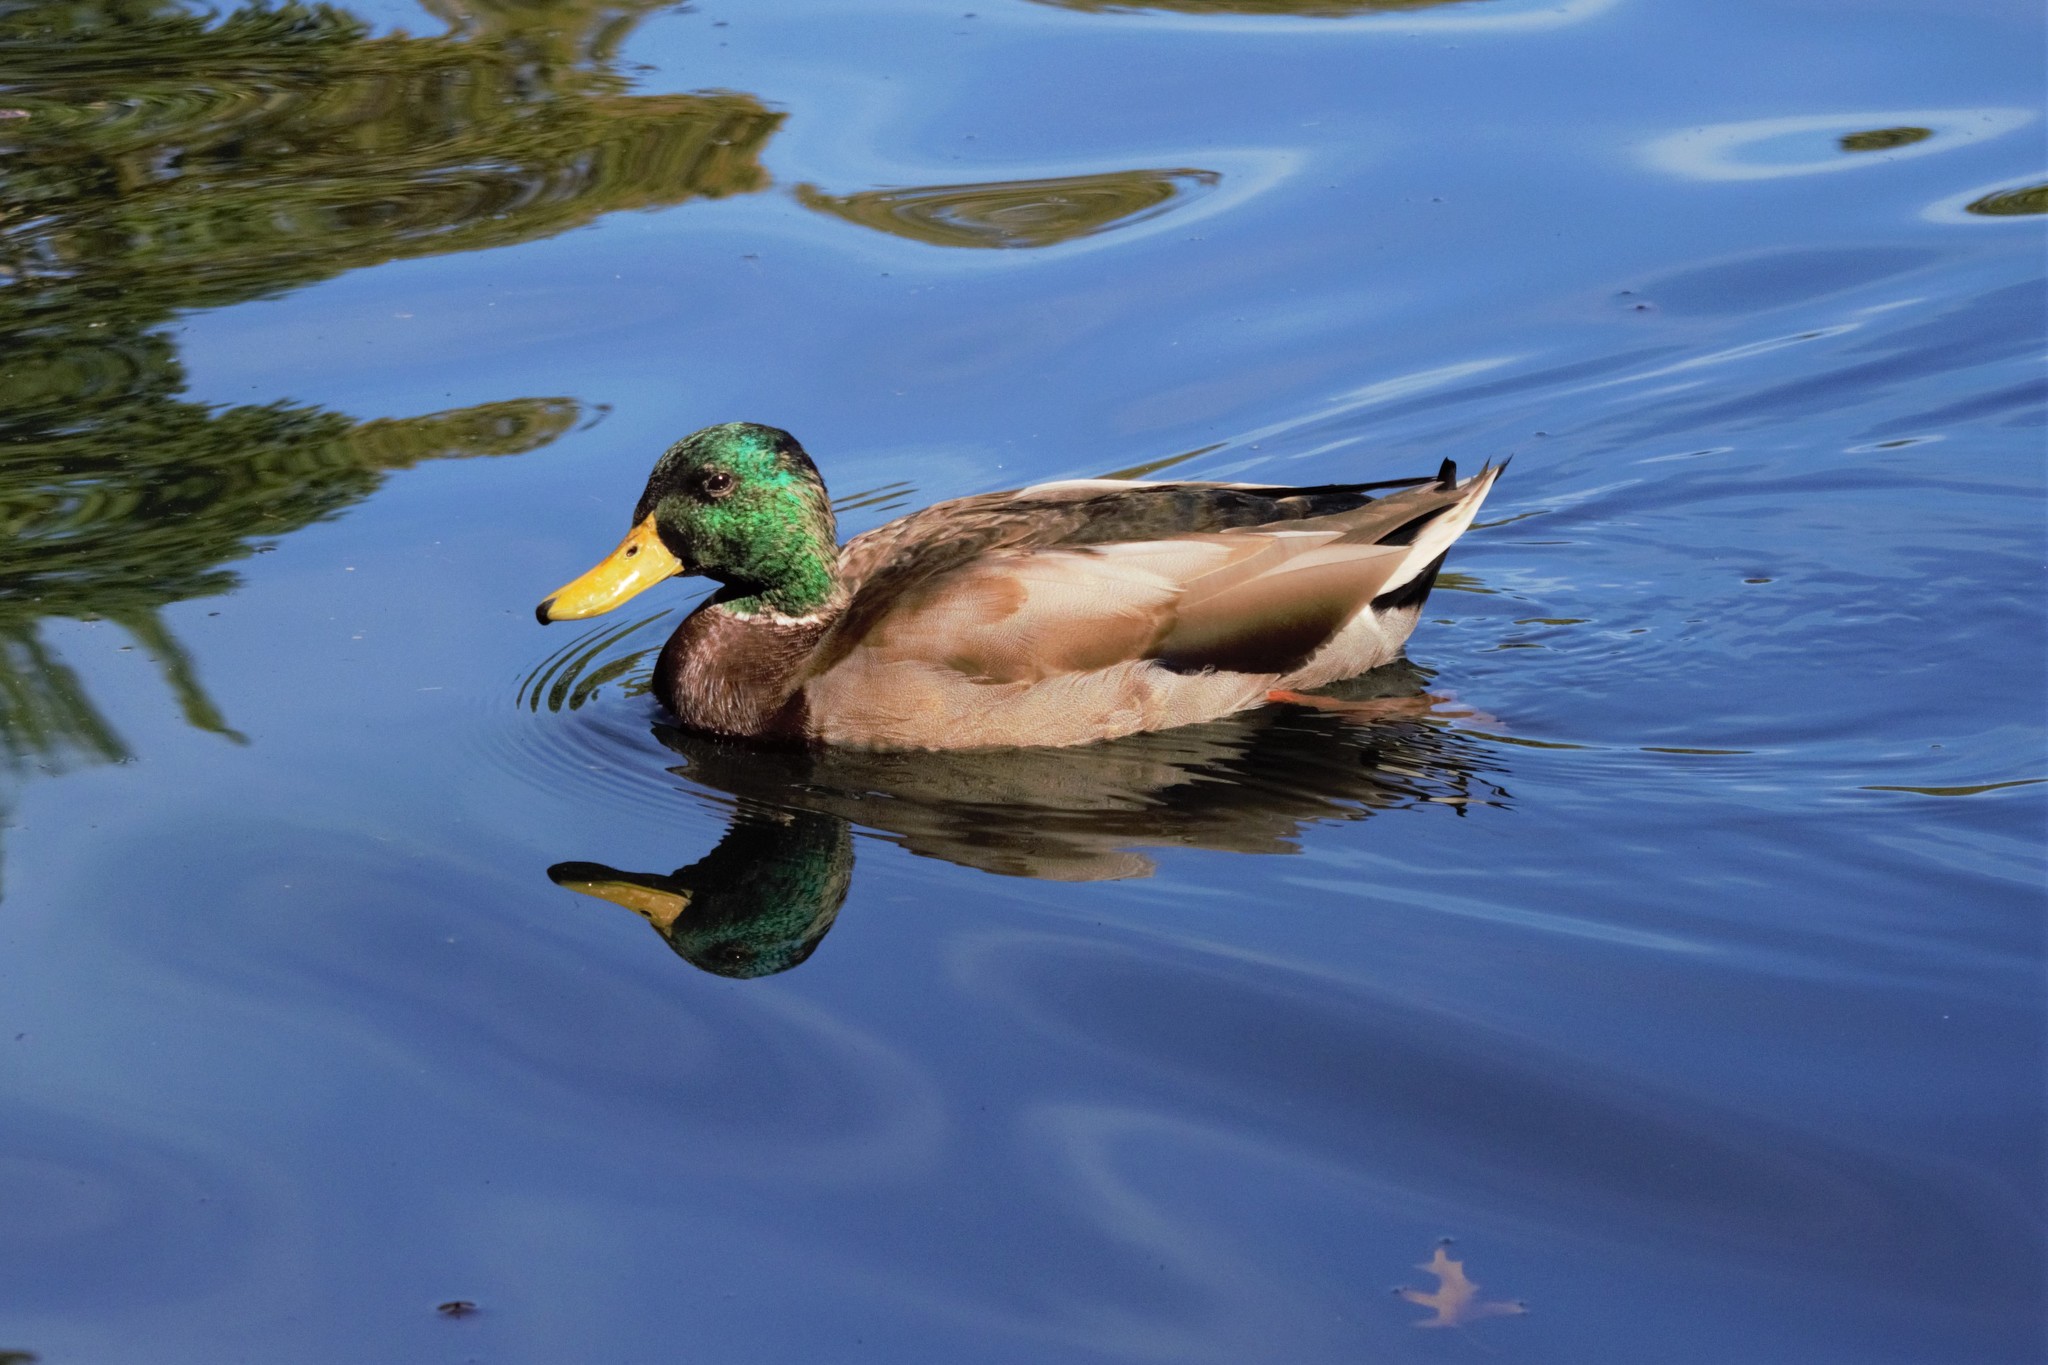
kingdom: Animalia
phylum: Chordata
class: Aves
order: Anseriformes
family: Anatidae
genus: Anas
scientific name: Anas platyrhynchos
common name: Mallard
